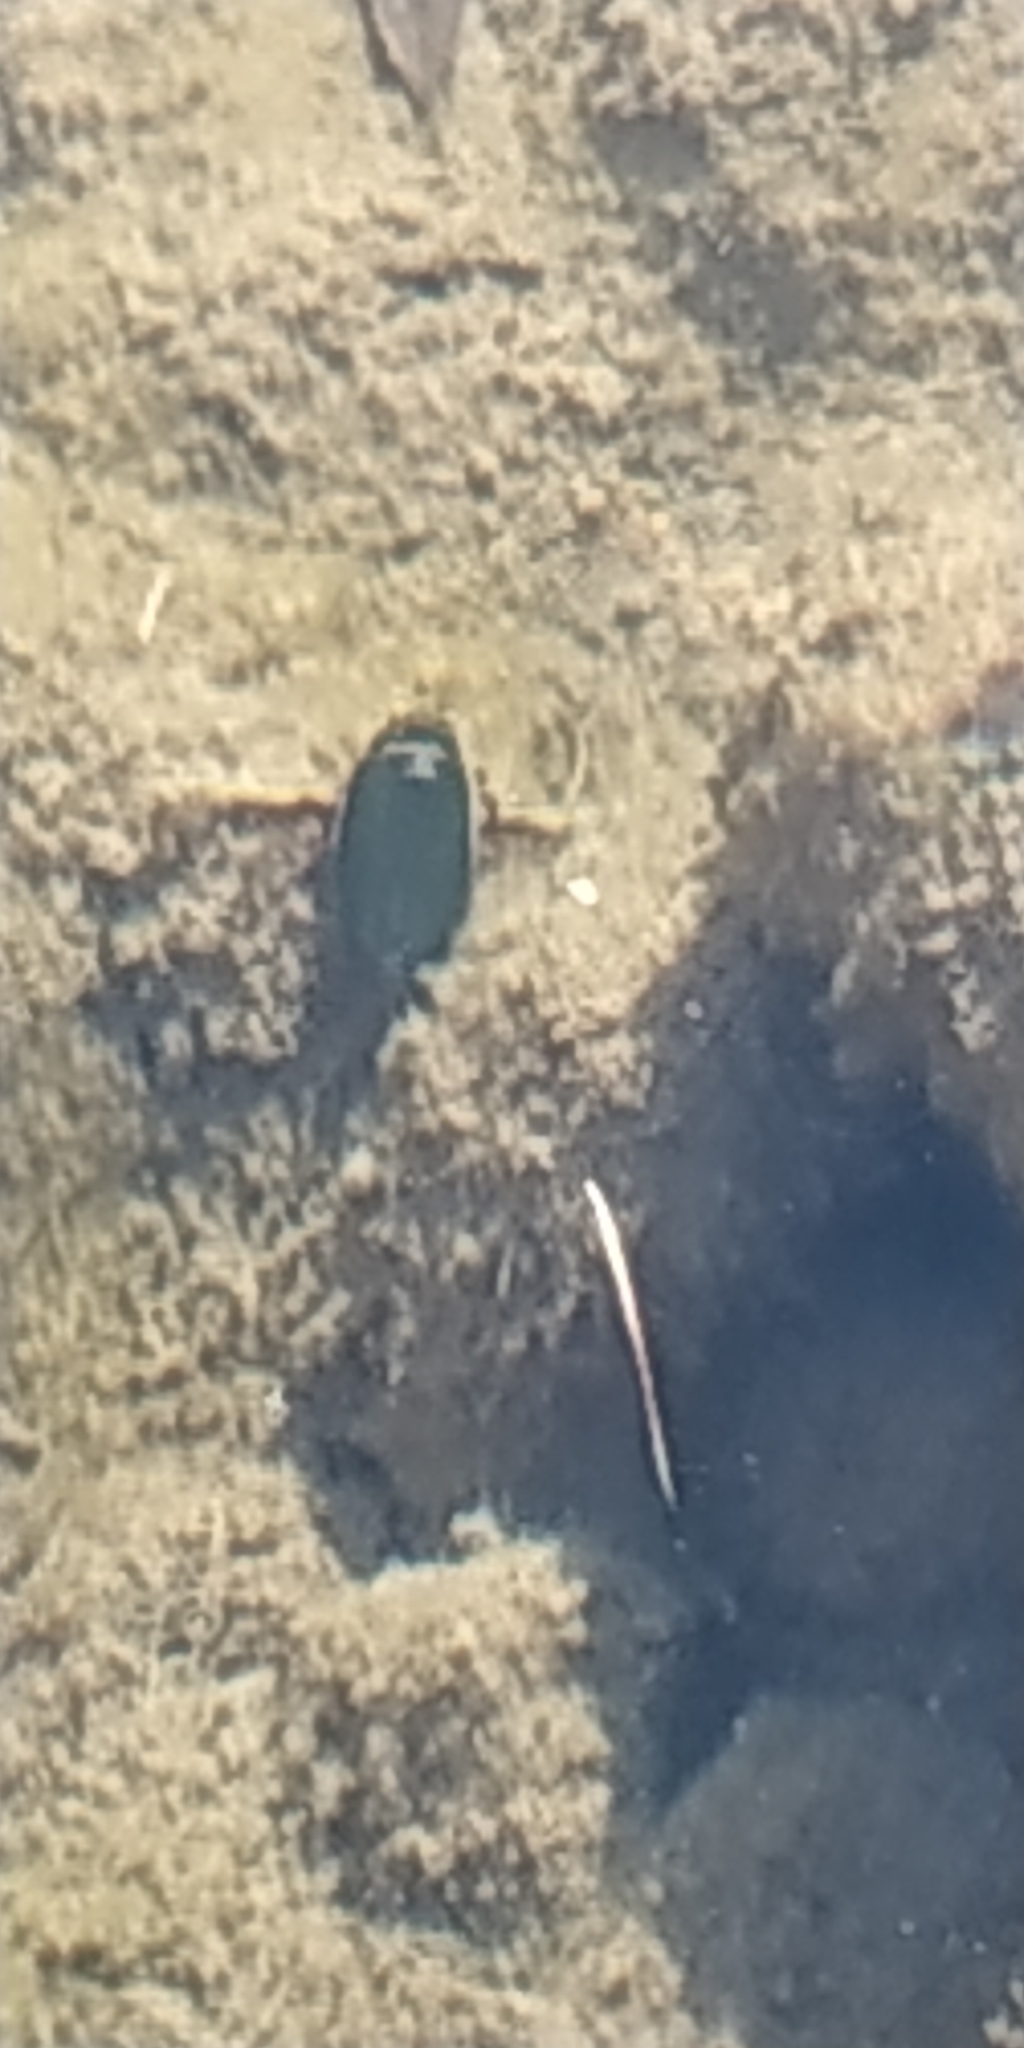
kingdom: Animalia
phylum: Arthropoda
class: Insecta
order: Coleoptera
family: Dytiscidae
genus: Dytiscus
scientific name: Dytiscus
